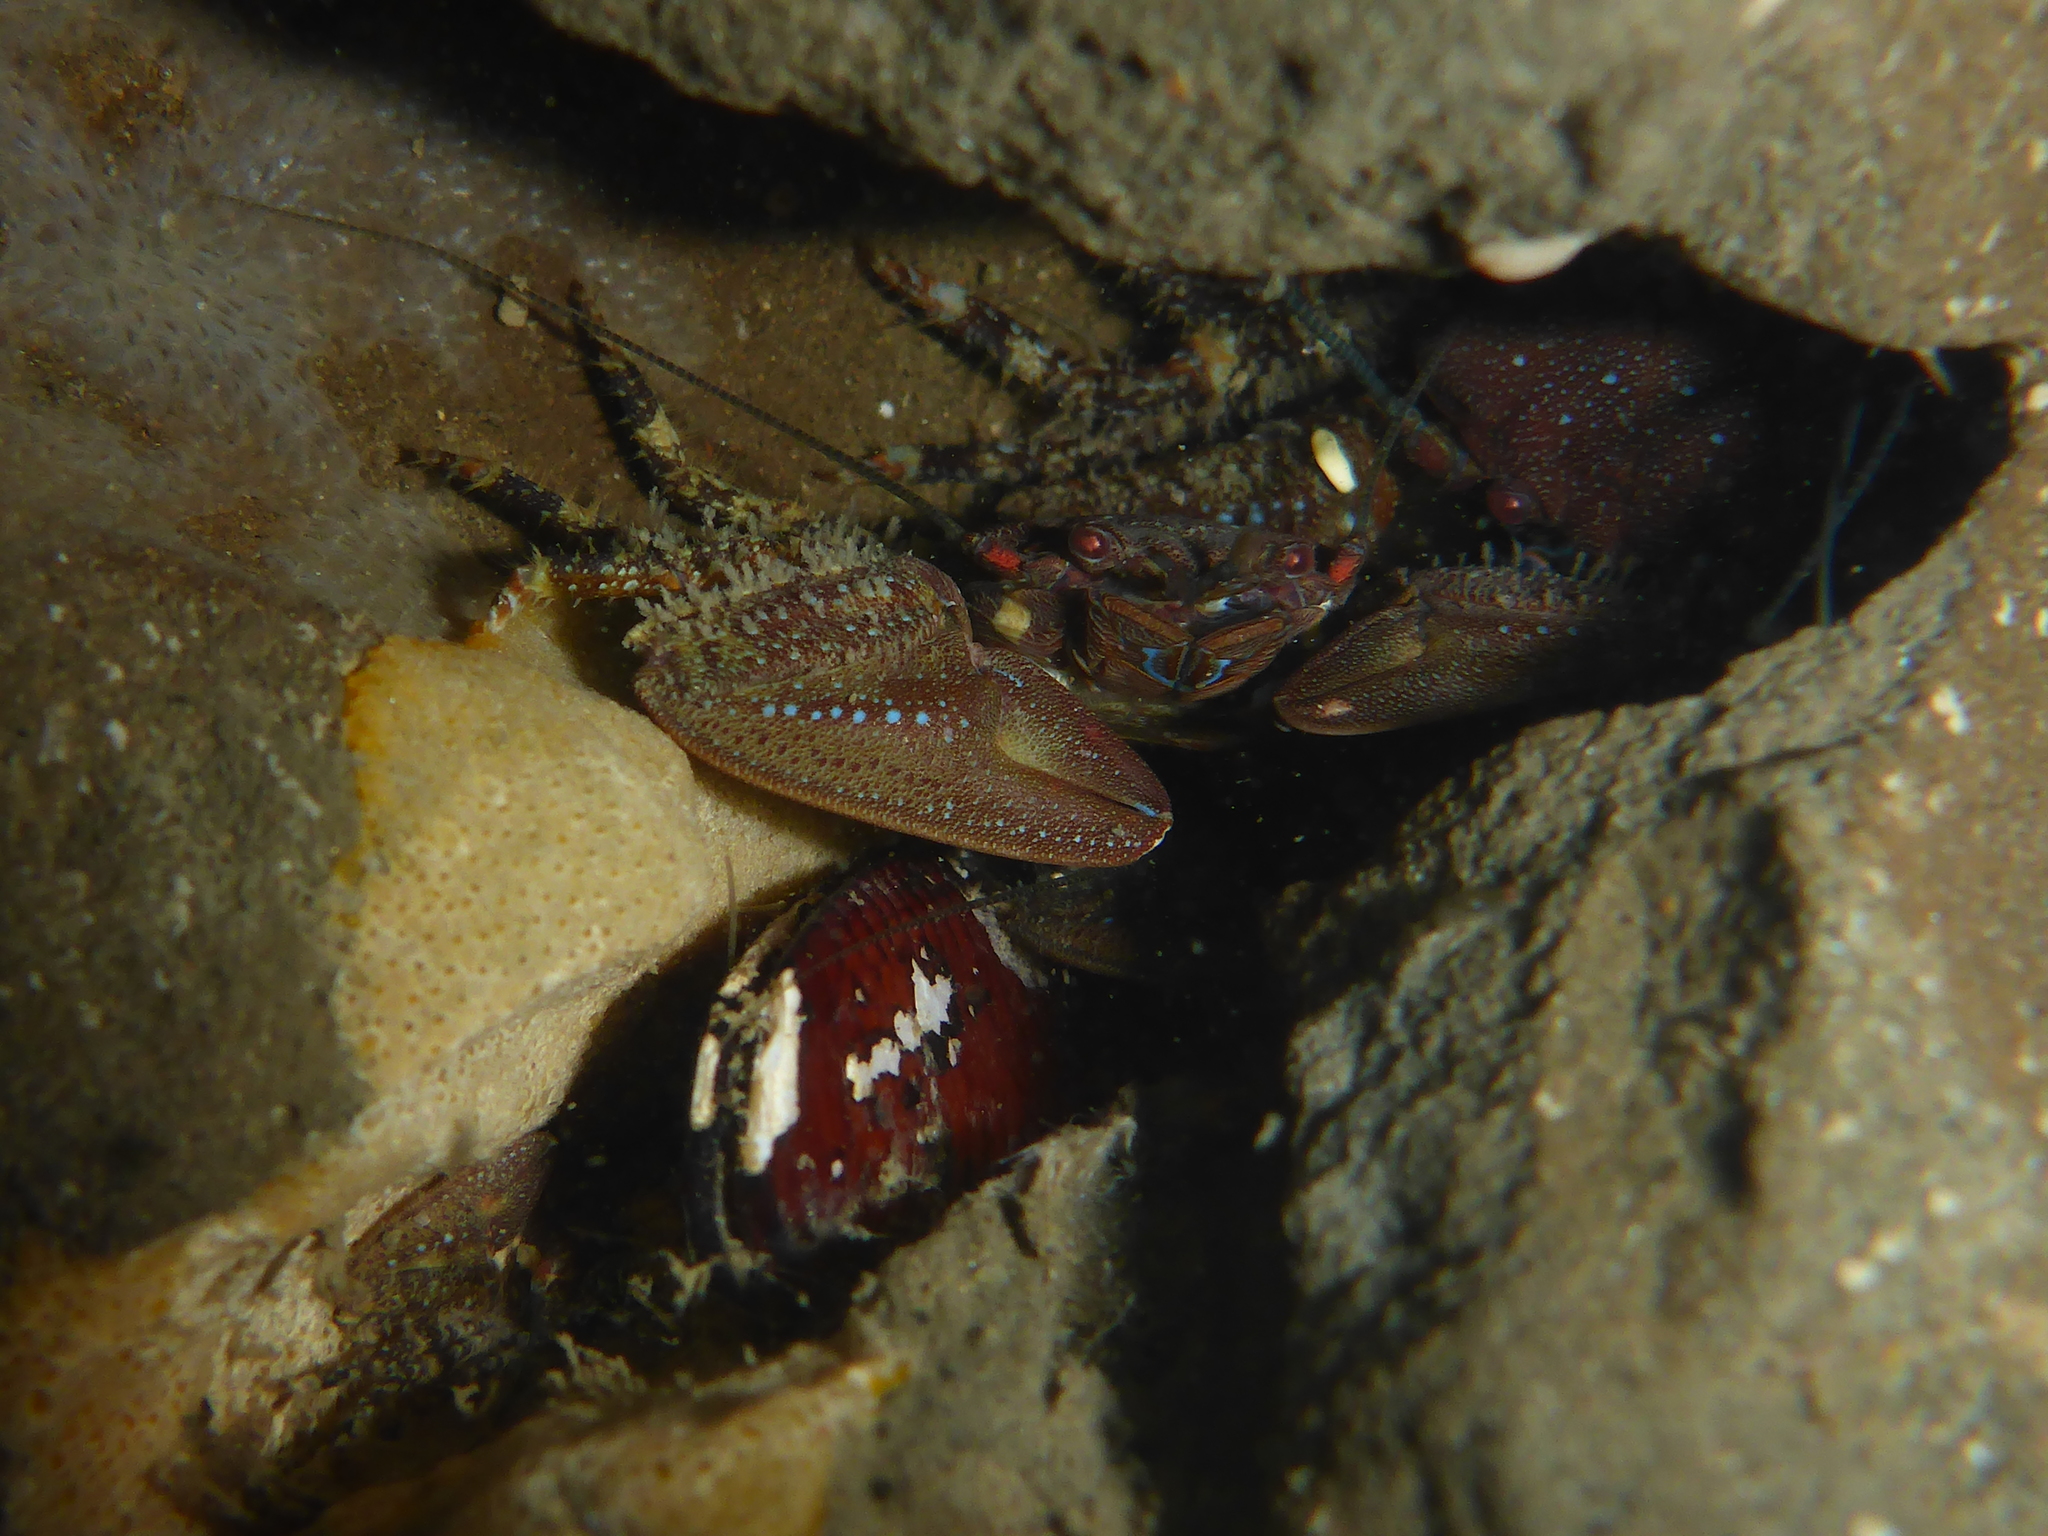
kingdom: Animalia
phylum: Arthropoda
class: Malacostraca
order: Decapoda
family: Porcellanidae
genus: Petrolisthes
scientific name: Petrolisthes manimaculis
